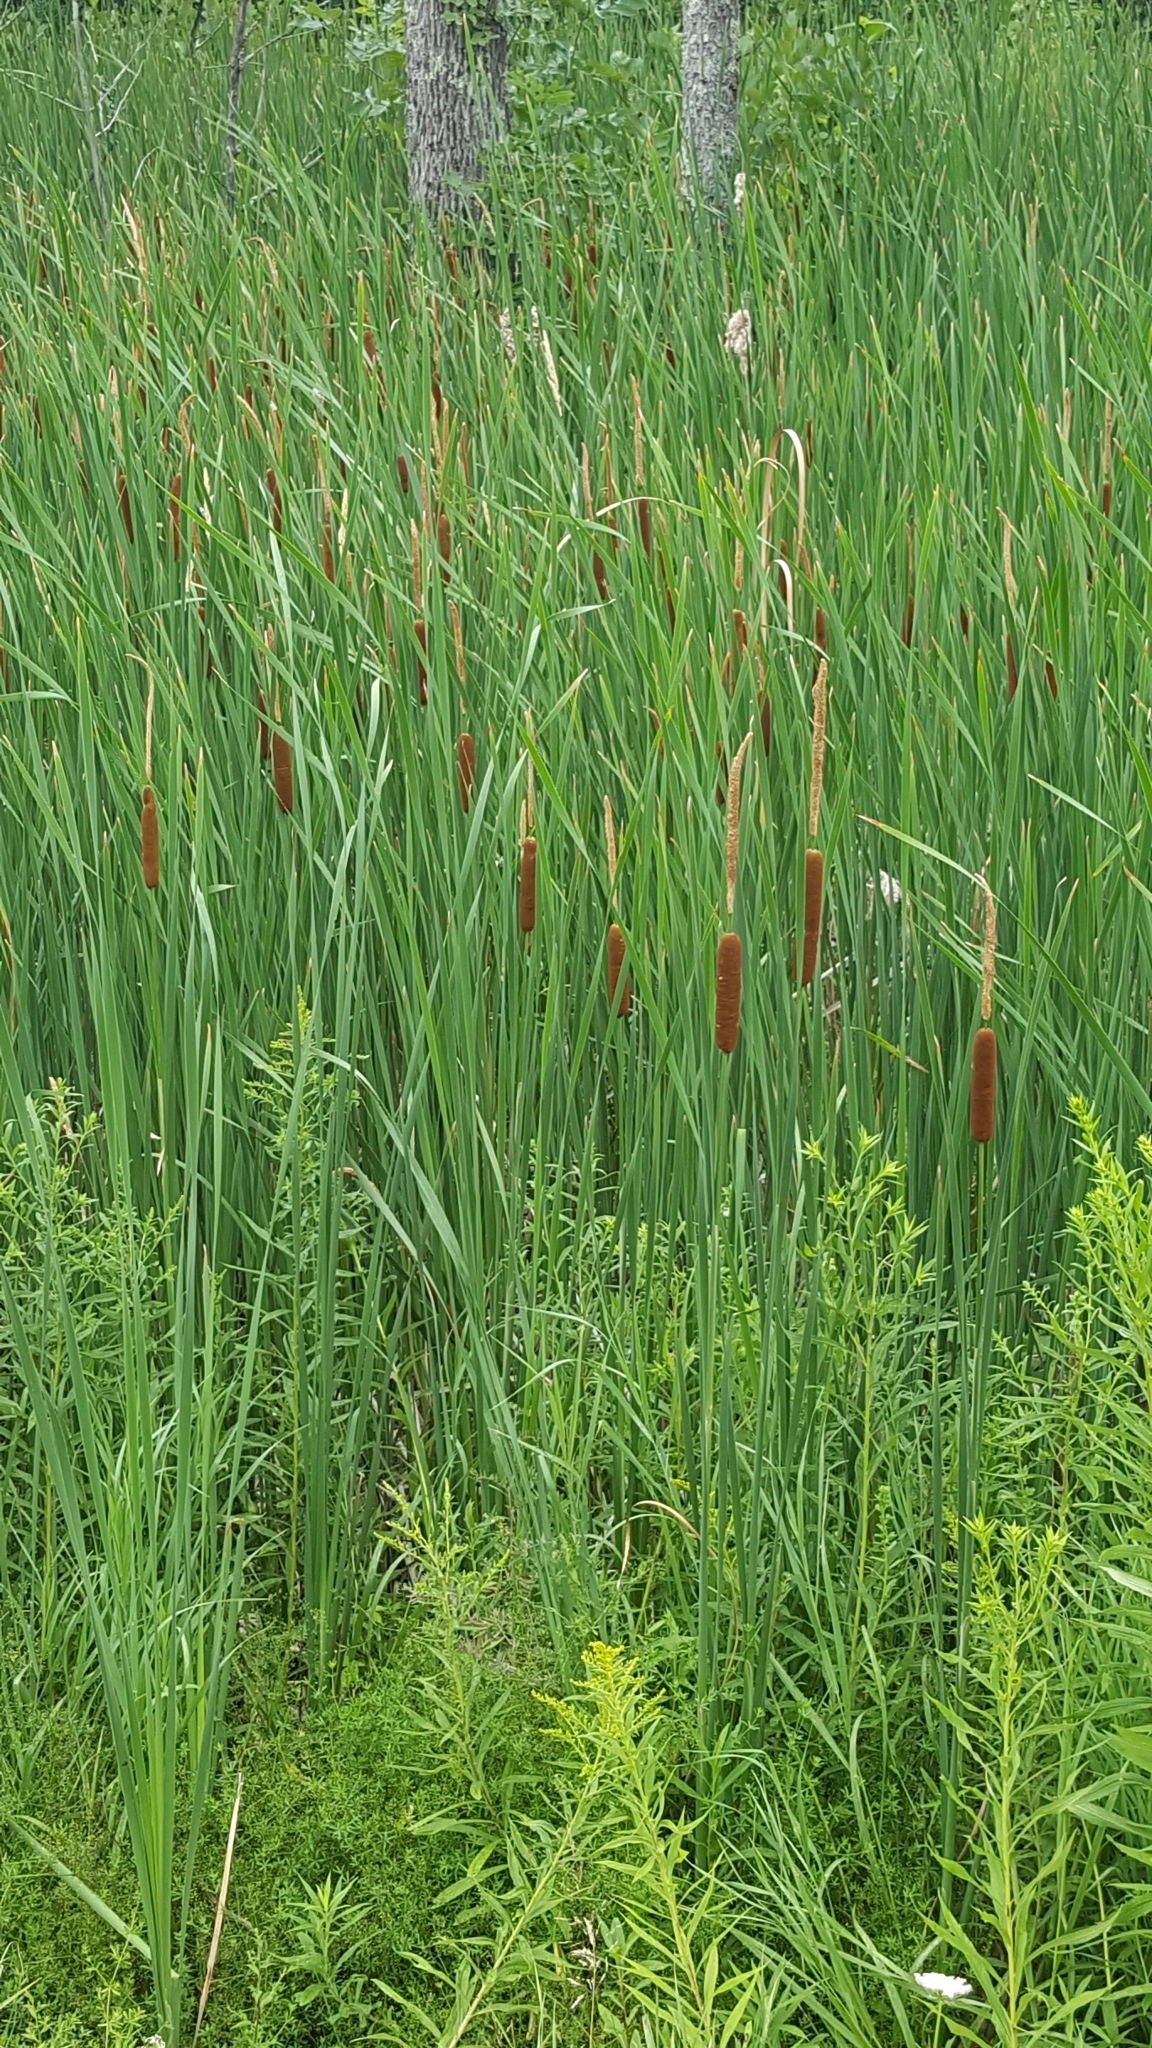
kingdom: Plantae
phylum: Tracheophyta
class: Liliopsida
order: Poales
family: Typhaceae
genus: Typha
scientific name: Typha angustifolia
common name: Lesser bulrush
